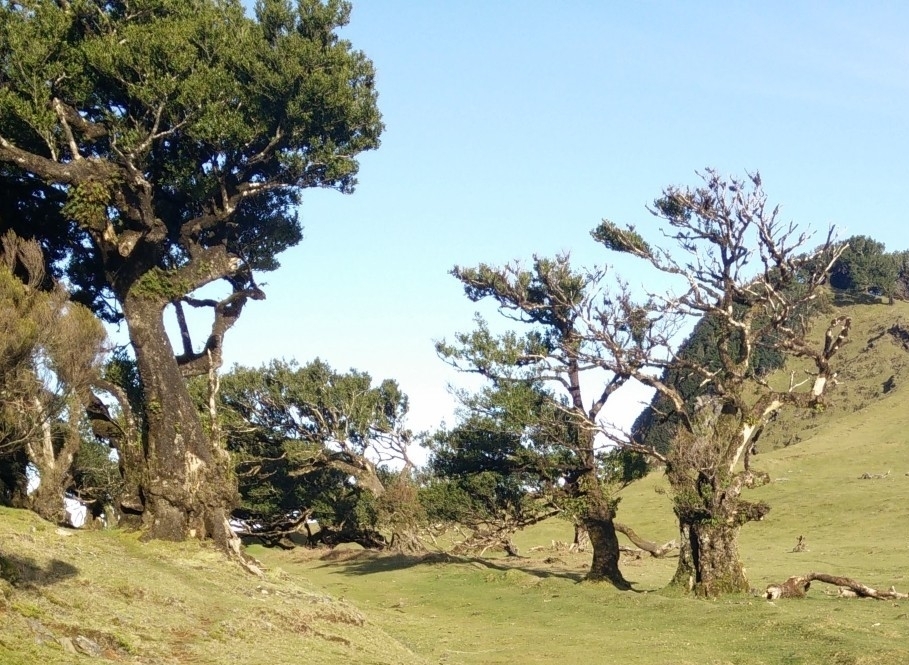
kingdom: Plantae
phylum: Tracheophyta
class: Magnoliopsida
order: Laurales
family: Lauraceae
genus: Mespilodaphne
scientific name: Mespilodaphne foetens
